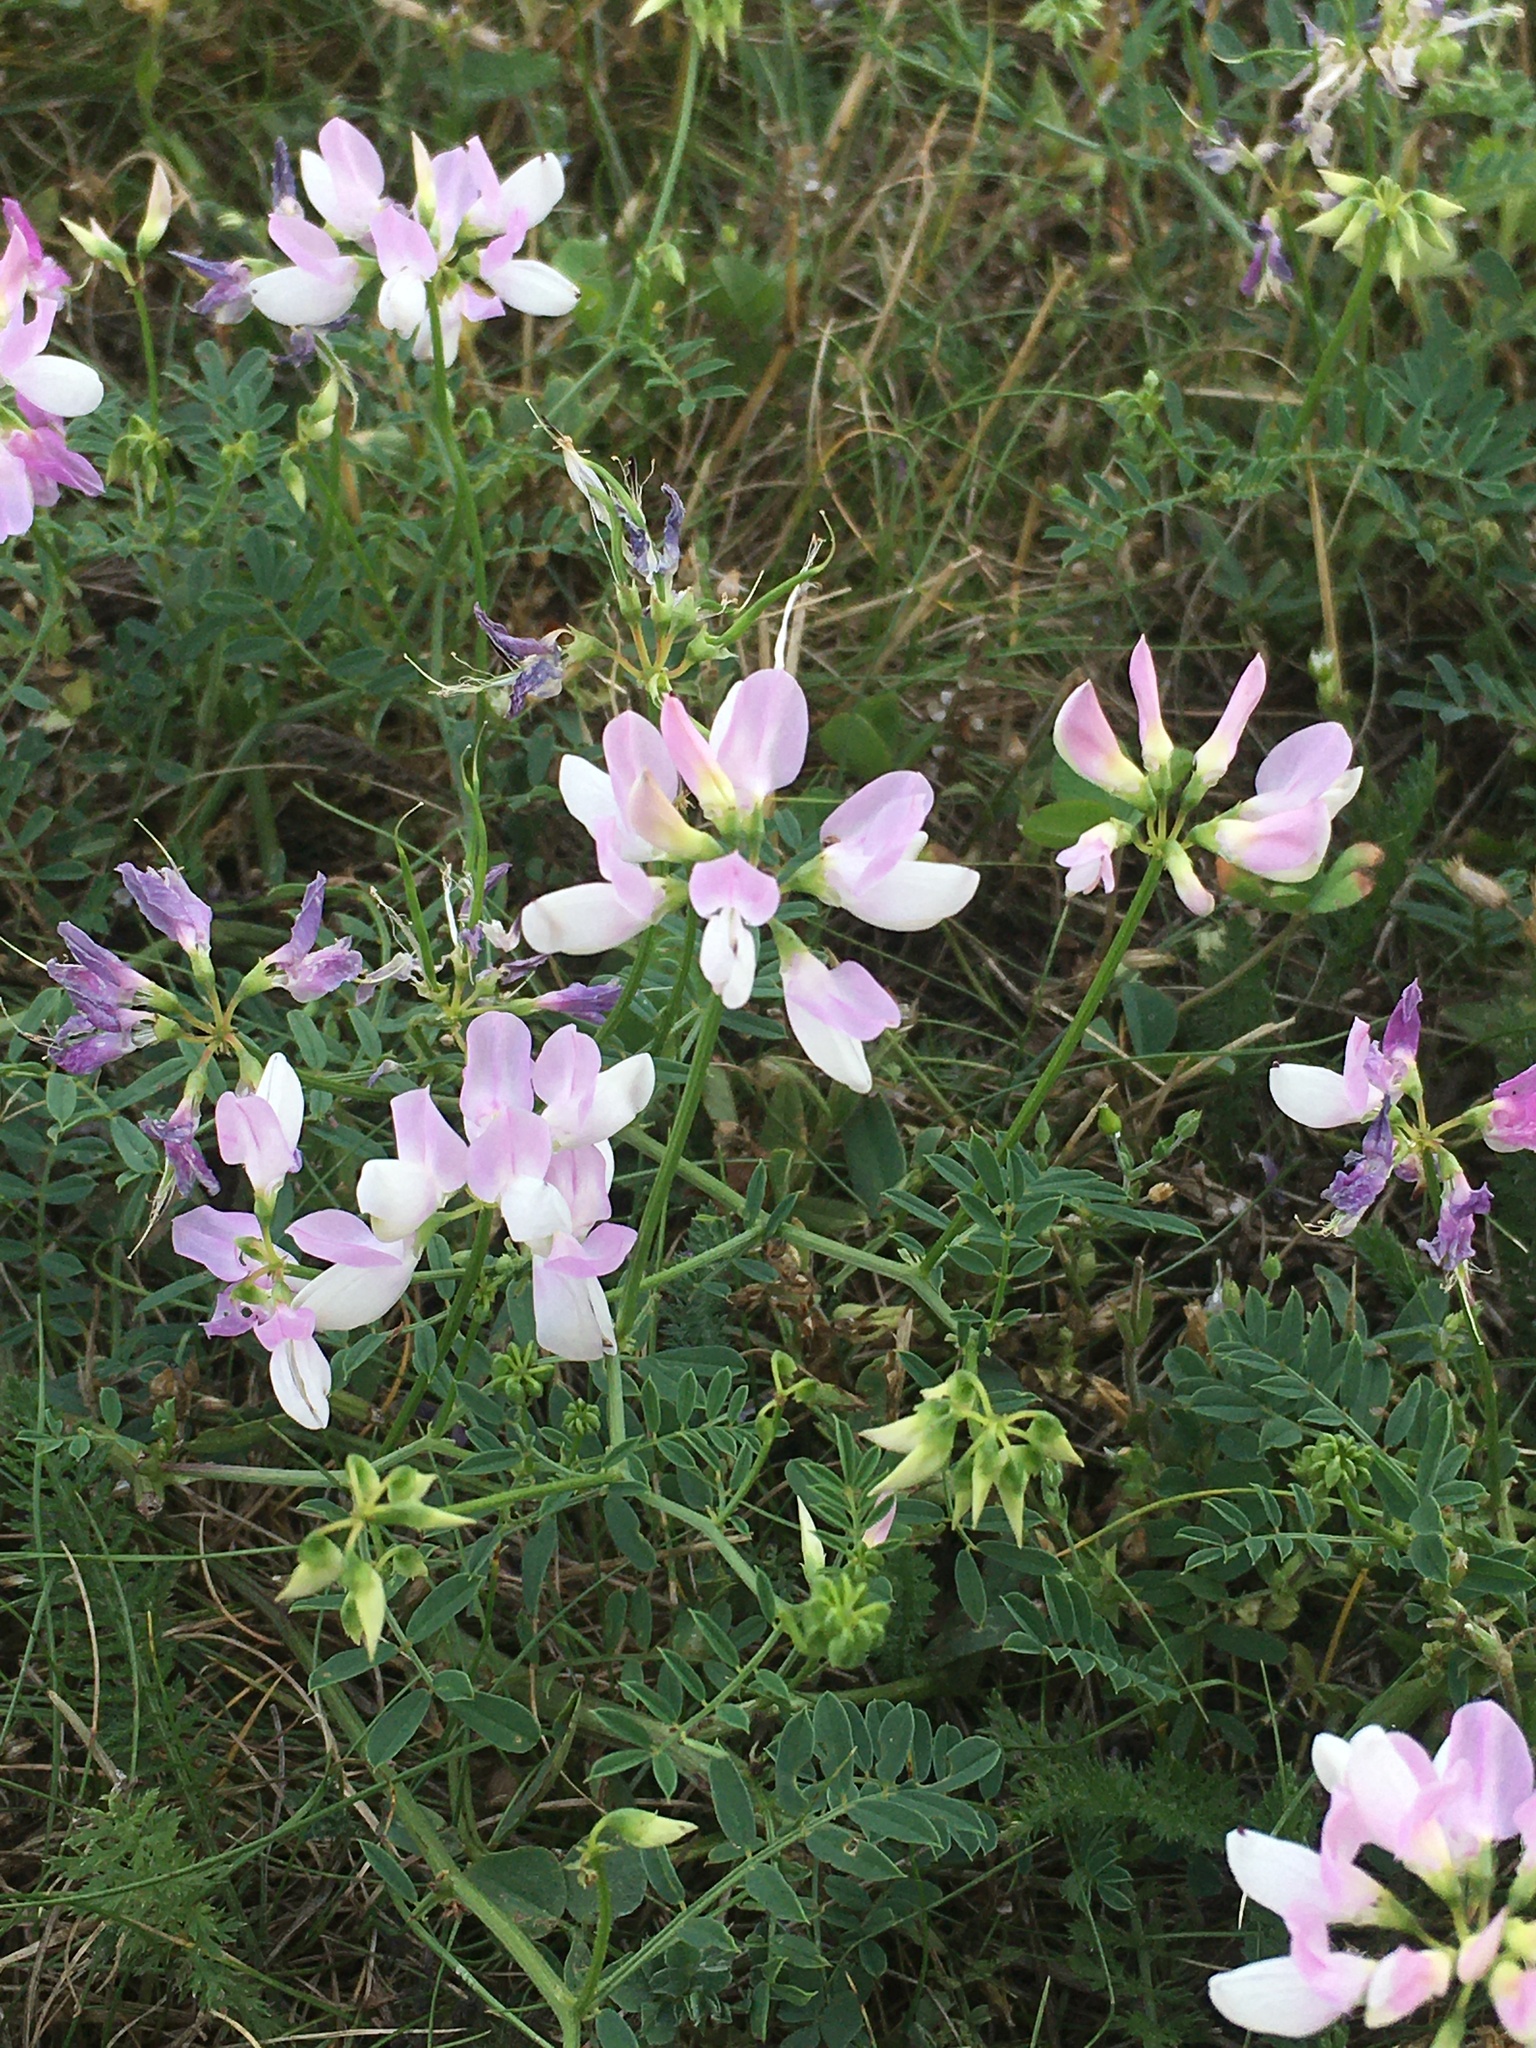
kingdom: Plantae
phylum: Tracheophyta
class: Magnoliopsida
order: Fabales
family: Fabaceae
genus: Coronilla
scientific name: Coronilla varia
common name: Crownvetch
